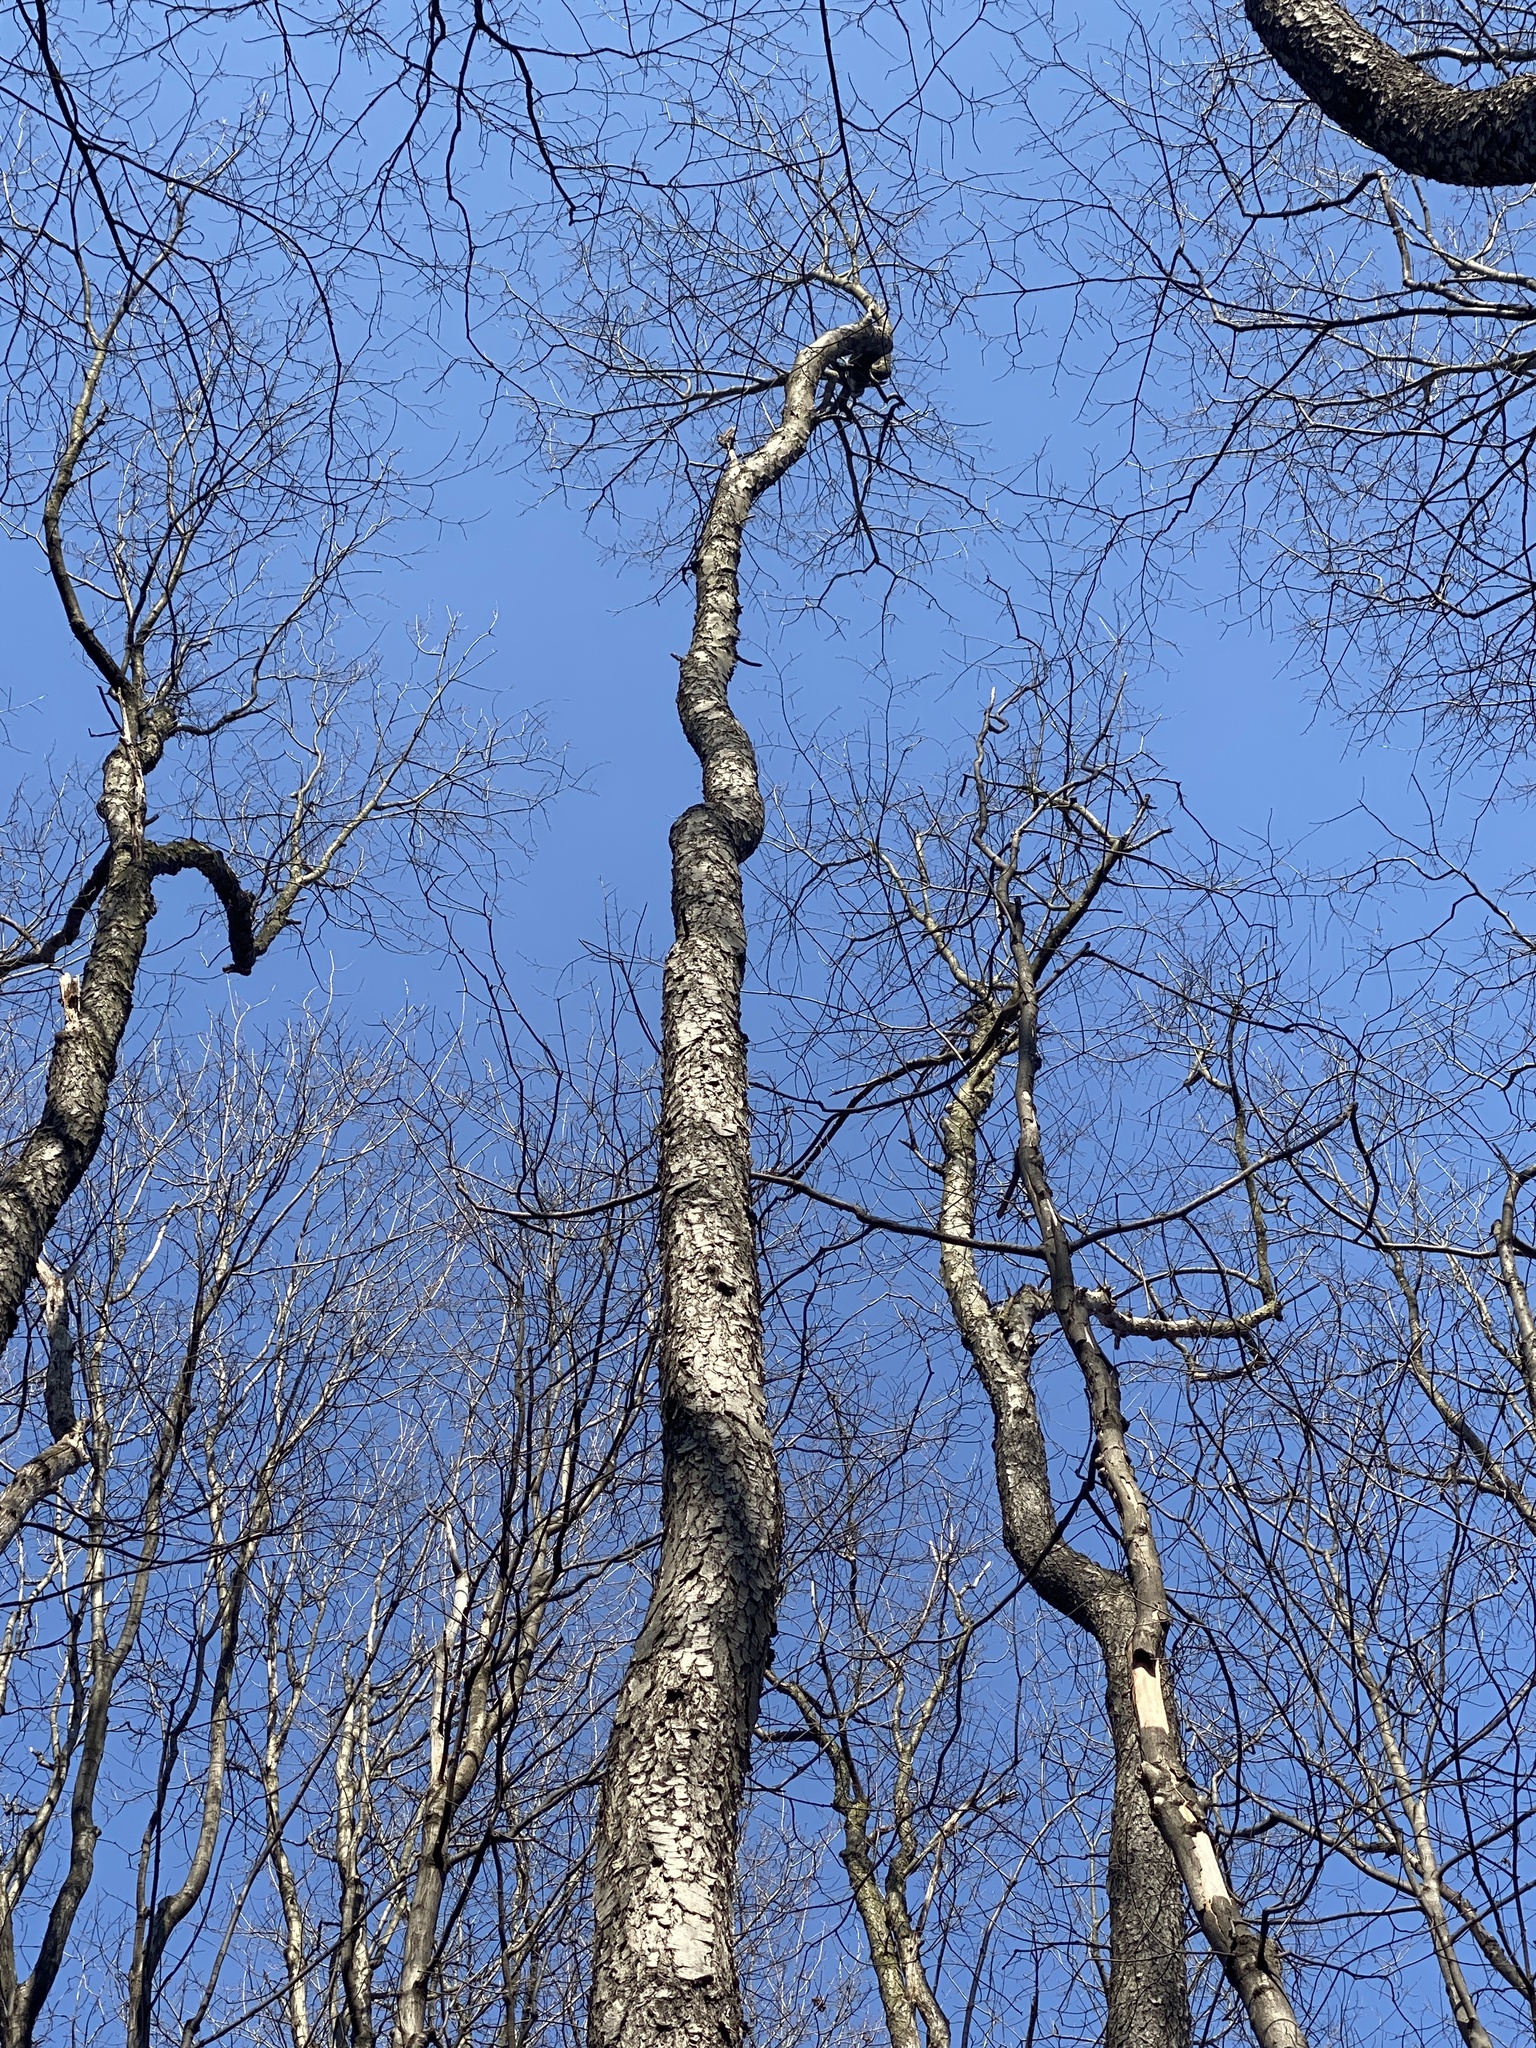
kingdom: Plantae
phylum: Tracheophyta
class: Magnoliopsida
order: Rosales
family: Rosaceae
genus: Prunus
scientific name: Prunus serotina
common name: Black cherry
